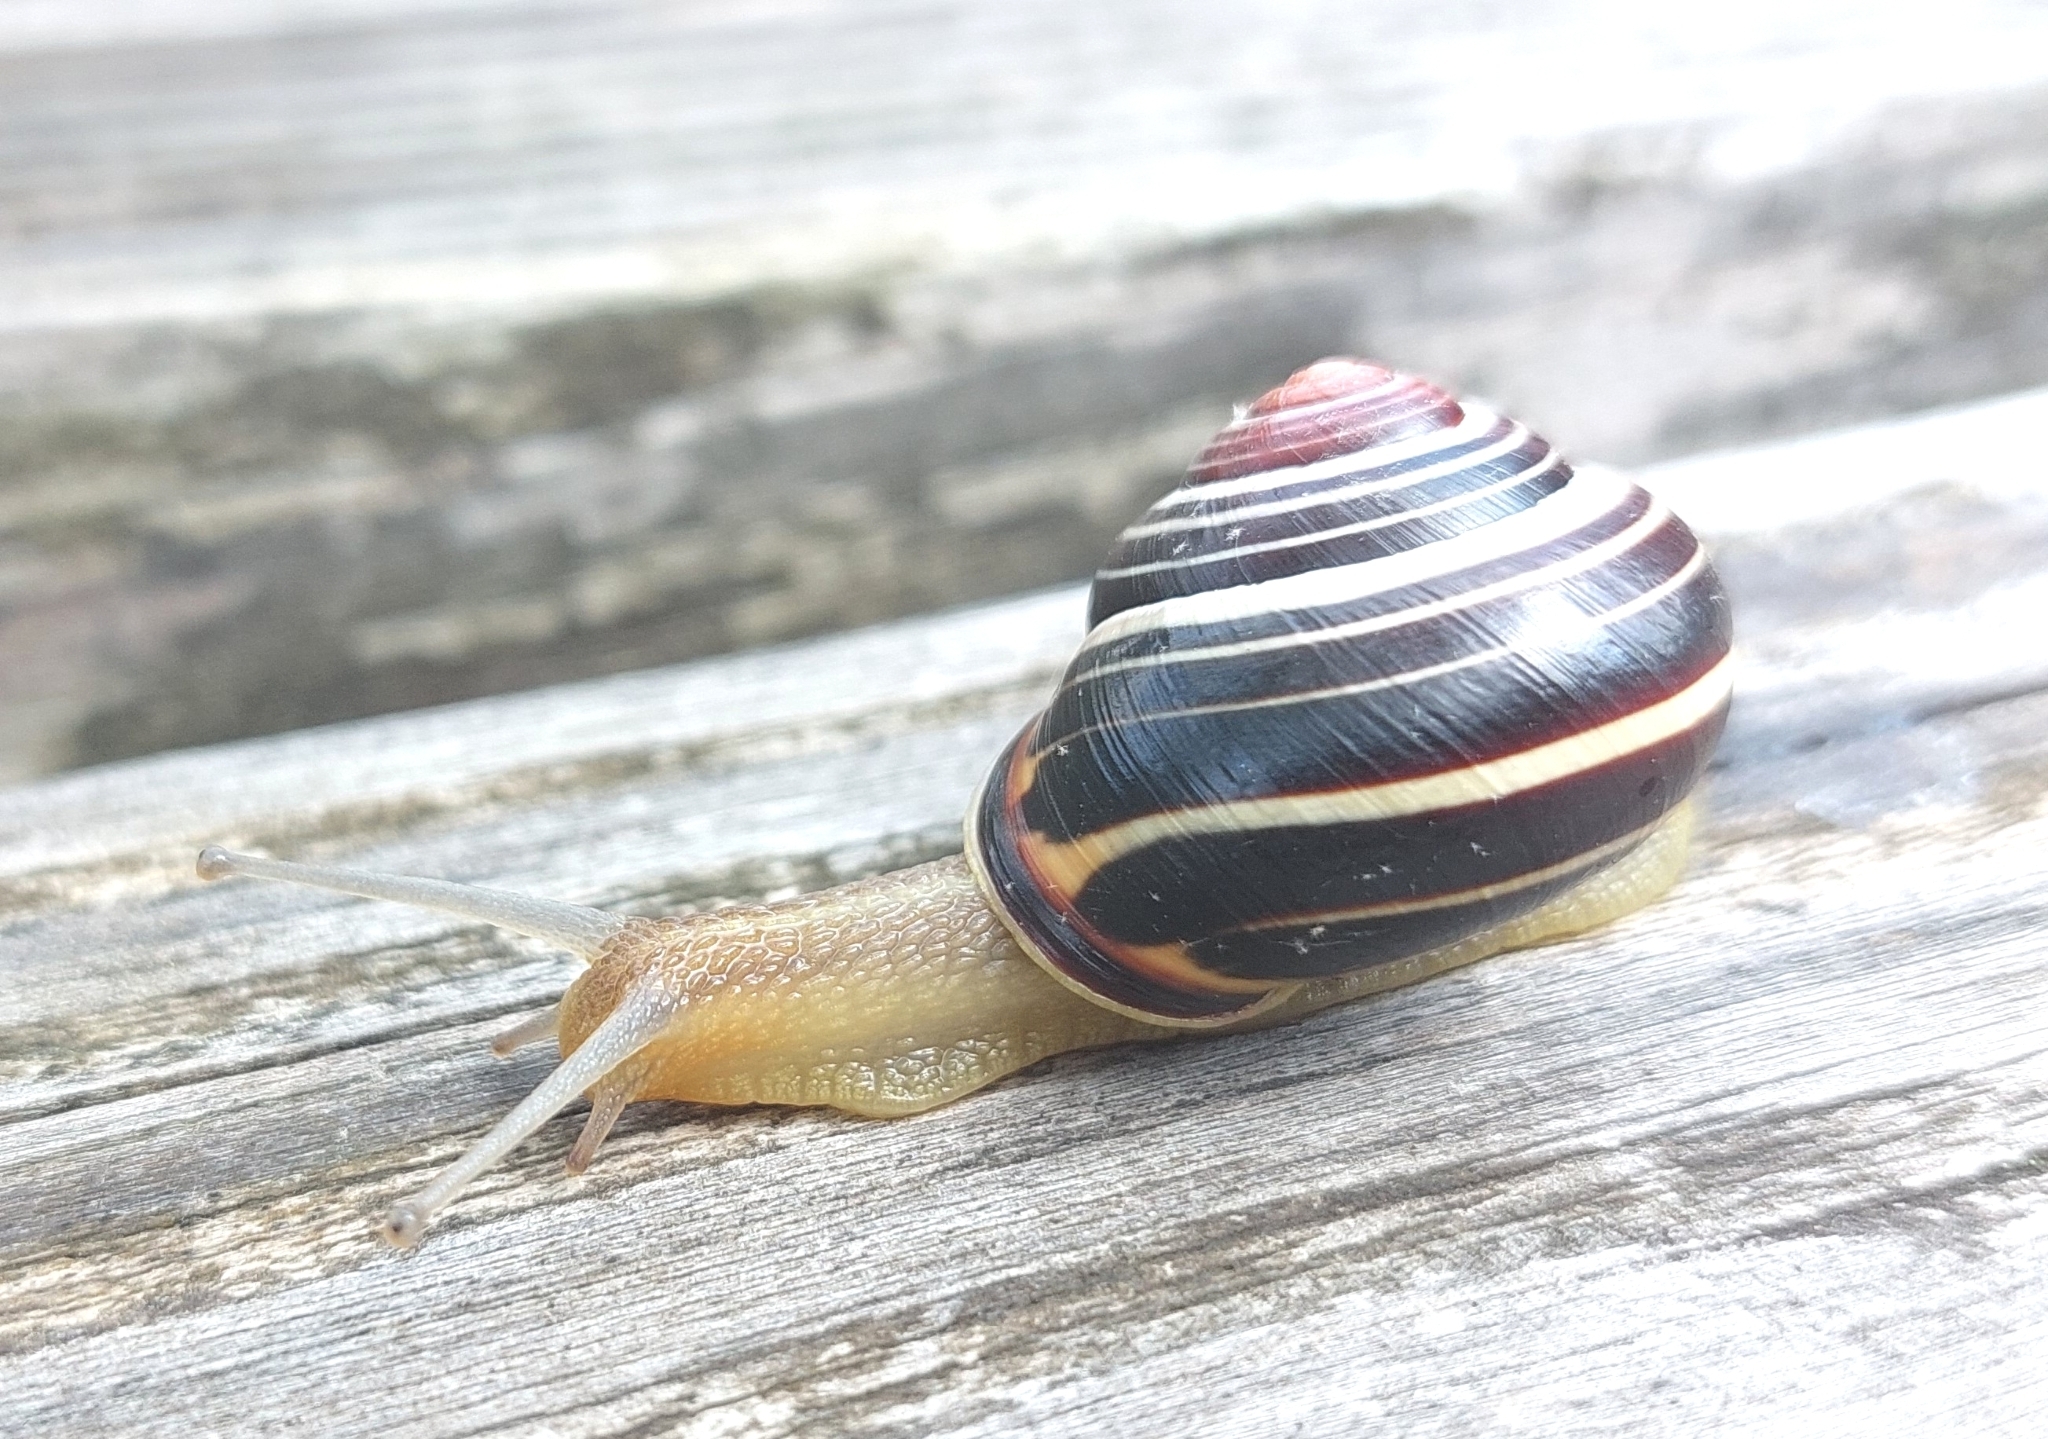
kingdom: Animalia
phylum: Mollusca
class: Gastropoda
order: Stylommatophora
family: Helicidae
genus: Cepaea
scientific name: Cepaea nemoralis
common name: Grovesnail
